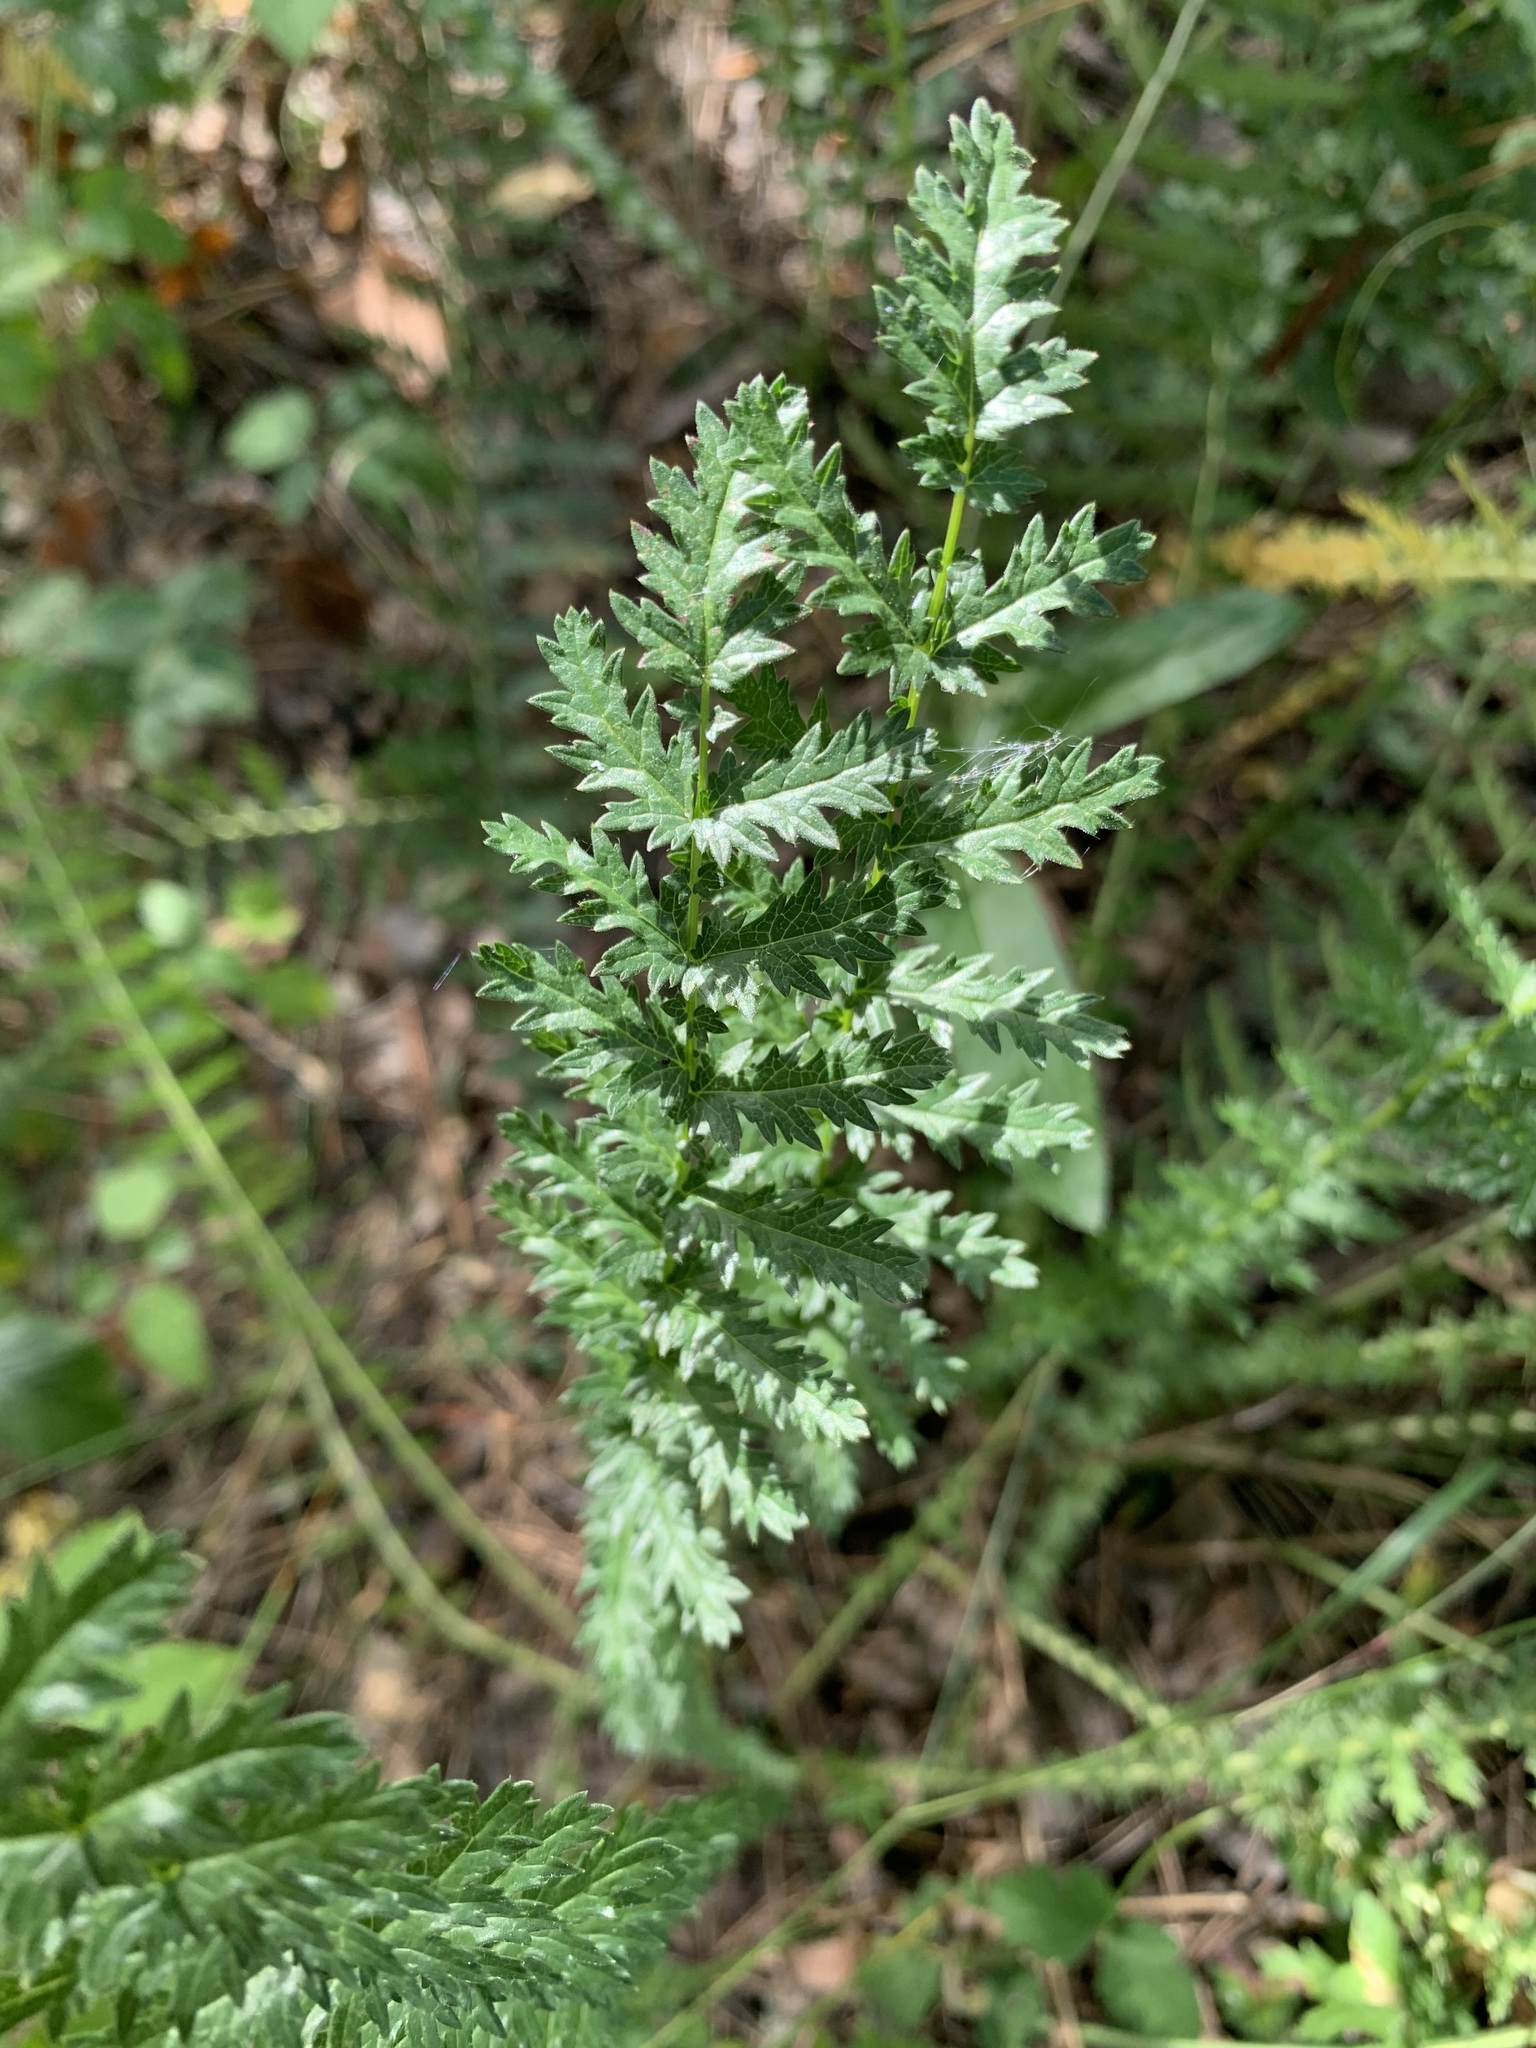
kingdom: Plantae
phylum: Tracheophyta
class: Magnoliopsida
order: Rosales
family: Rosaceae
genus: Filipendula
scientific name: Filipendula vulgaris
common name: Dropwort
